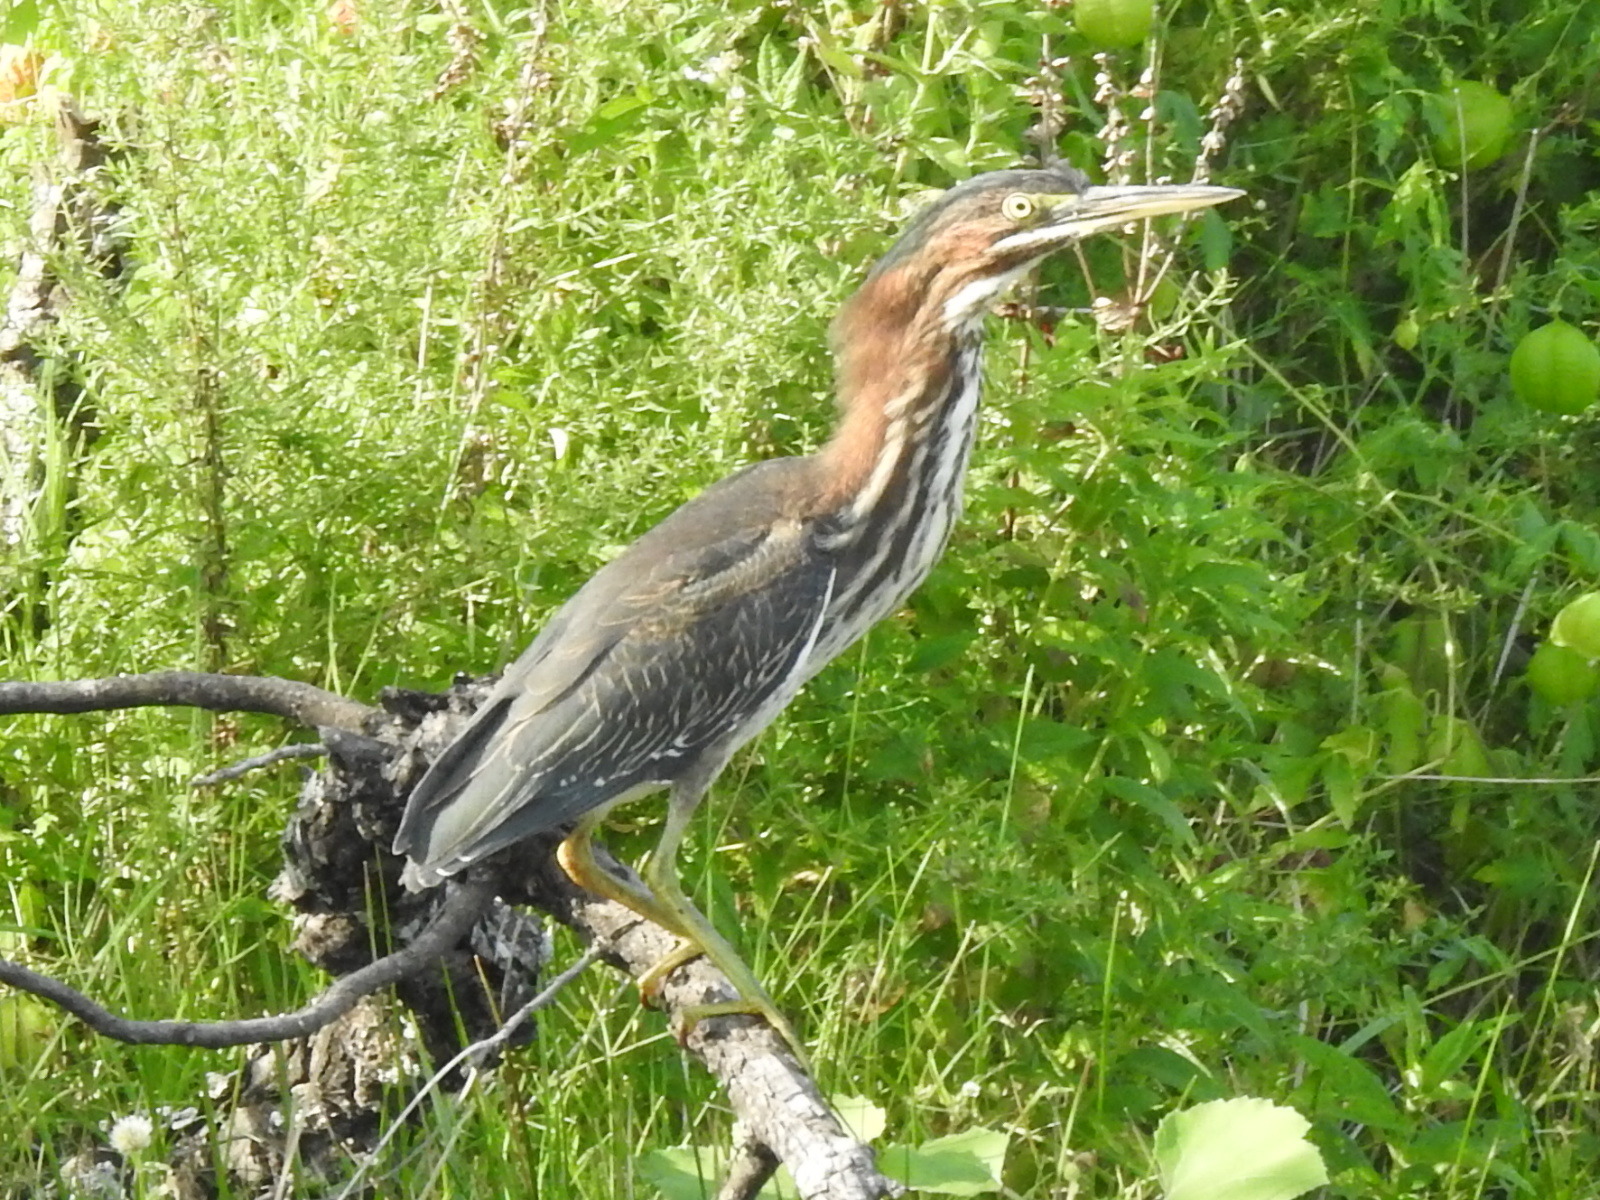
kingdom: Animalia
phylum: Chordata
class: Aves
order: Pelecaniformes
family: Ardeidae
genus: Butorides
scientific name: Butorides virescens
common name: Green heron
